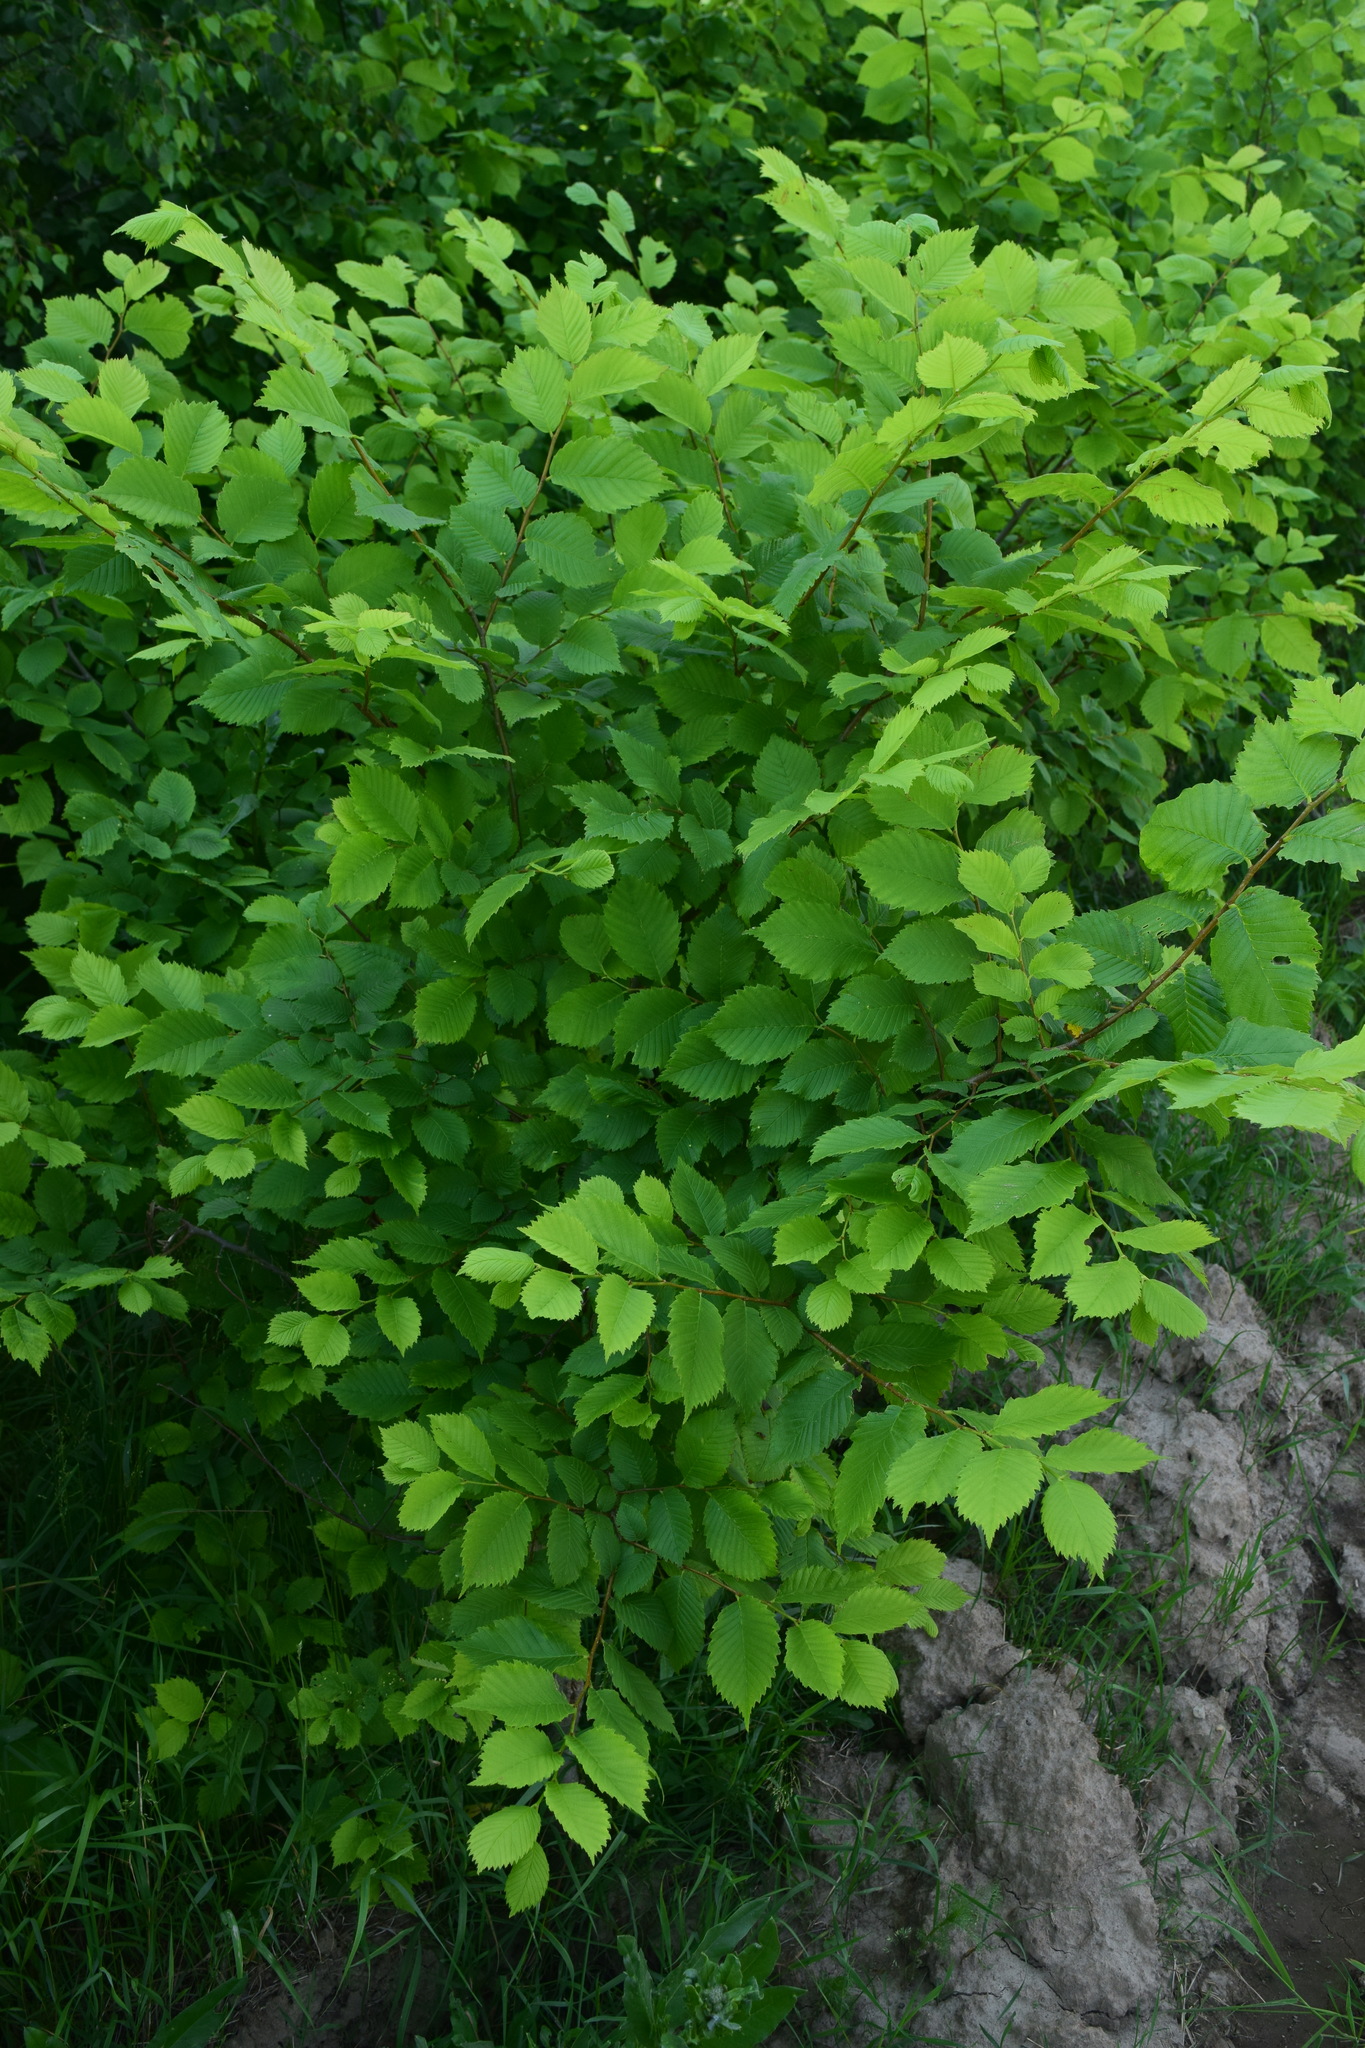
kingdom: Plantae
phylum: Tracheophyta
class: Magnoliopsida
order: Rosales
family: Ulmaceae
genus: Ulmus
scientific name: Ulmus laevis
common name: European white-elm
